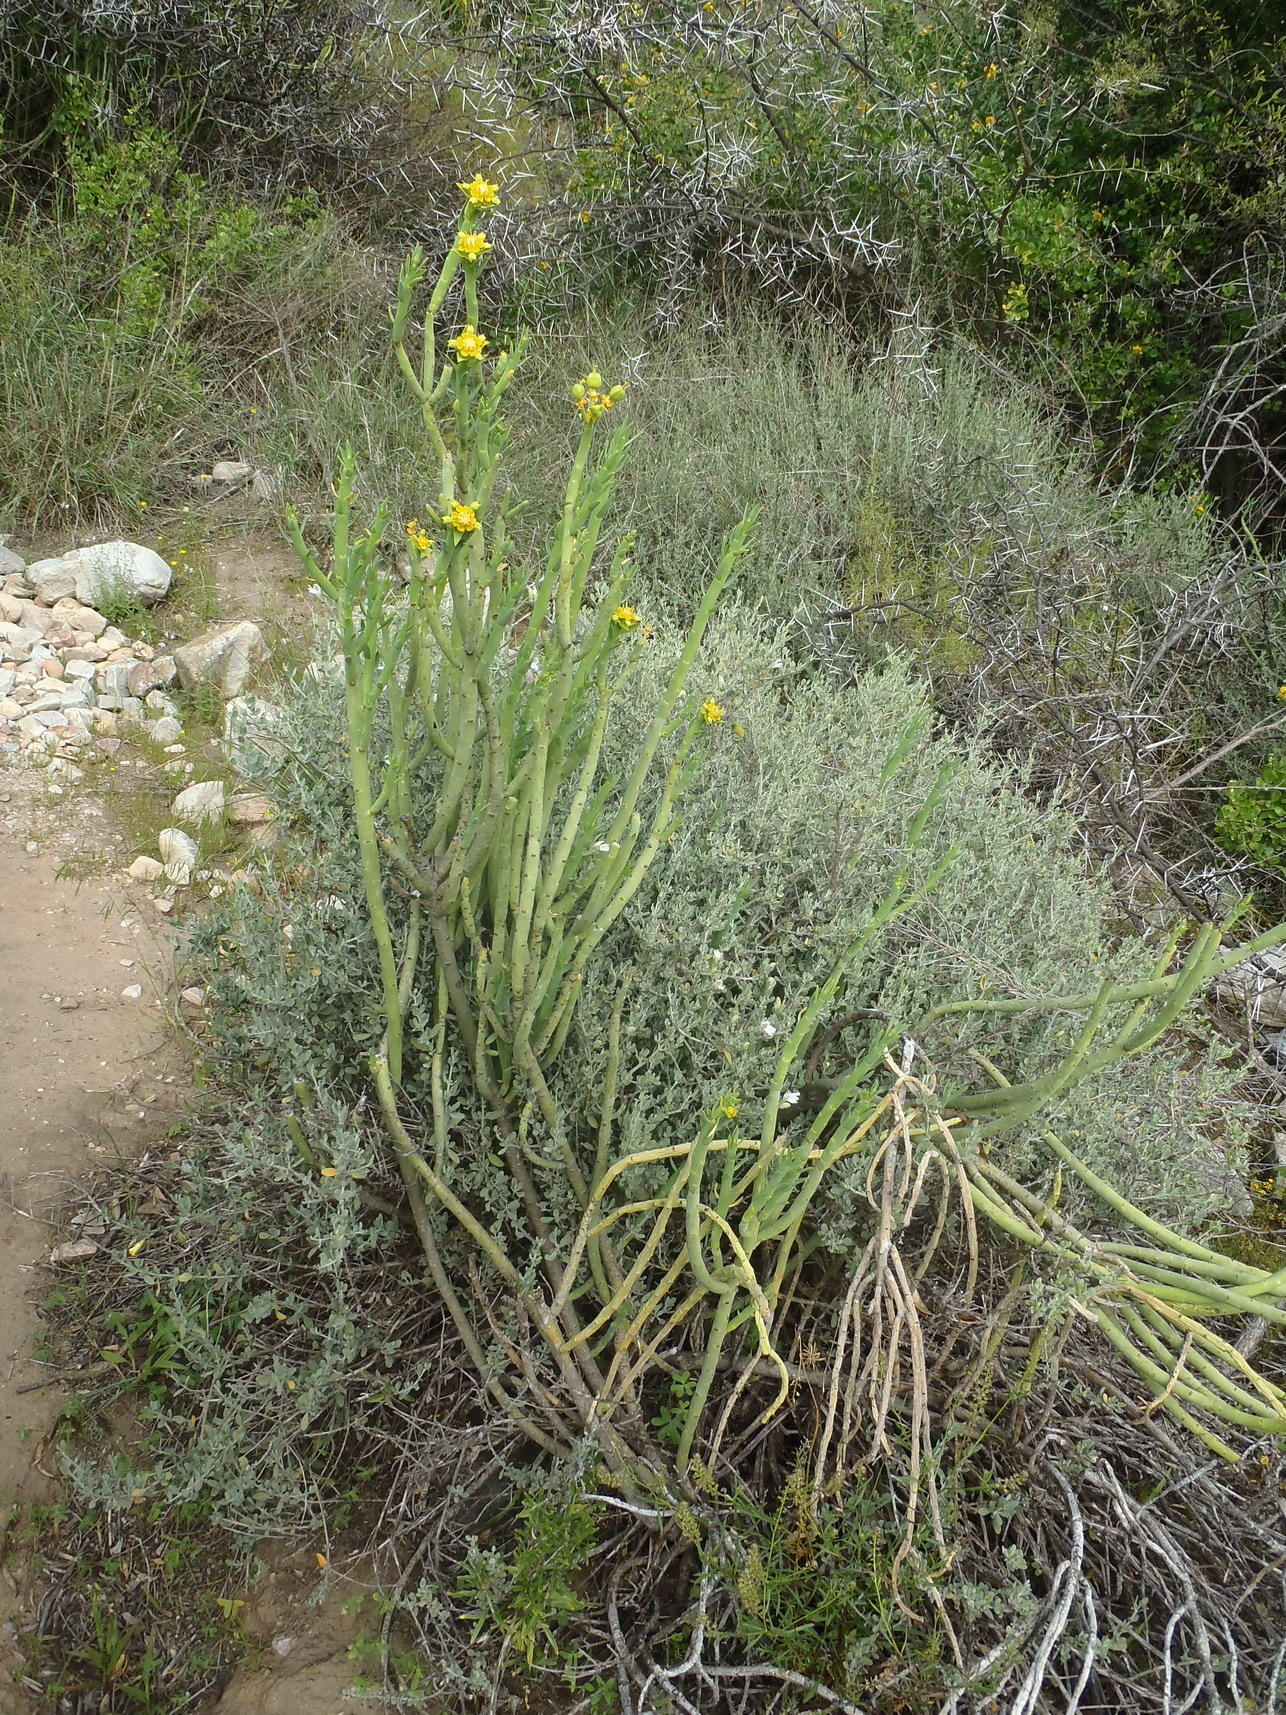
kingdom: Plantae
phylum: Tracheophyta
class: Magnoliopsida
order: Malpighiales
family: Euphorbiaceae
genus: Euphorbia
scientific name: Euphorbia mauritanica
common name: Jackal's-food
